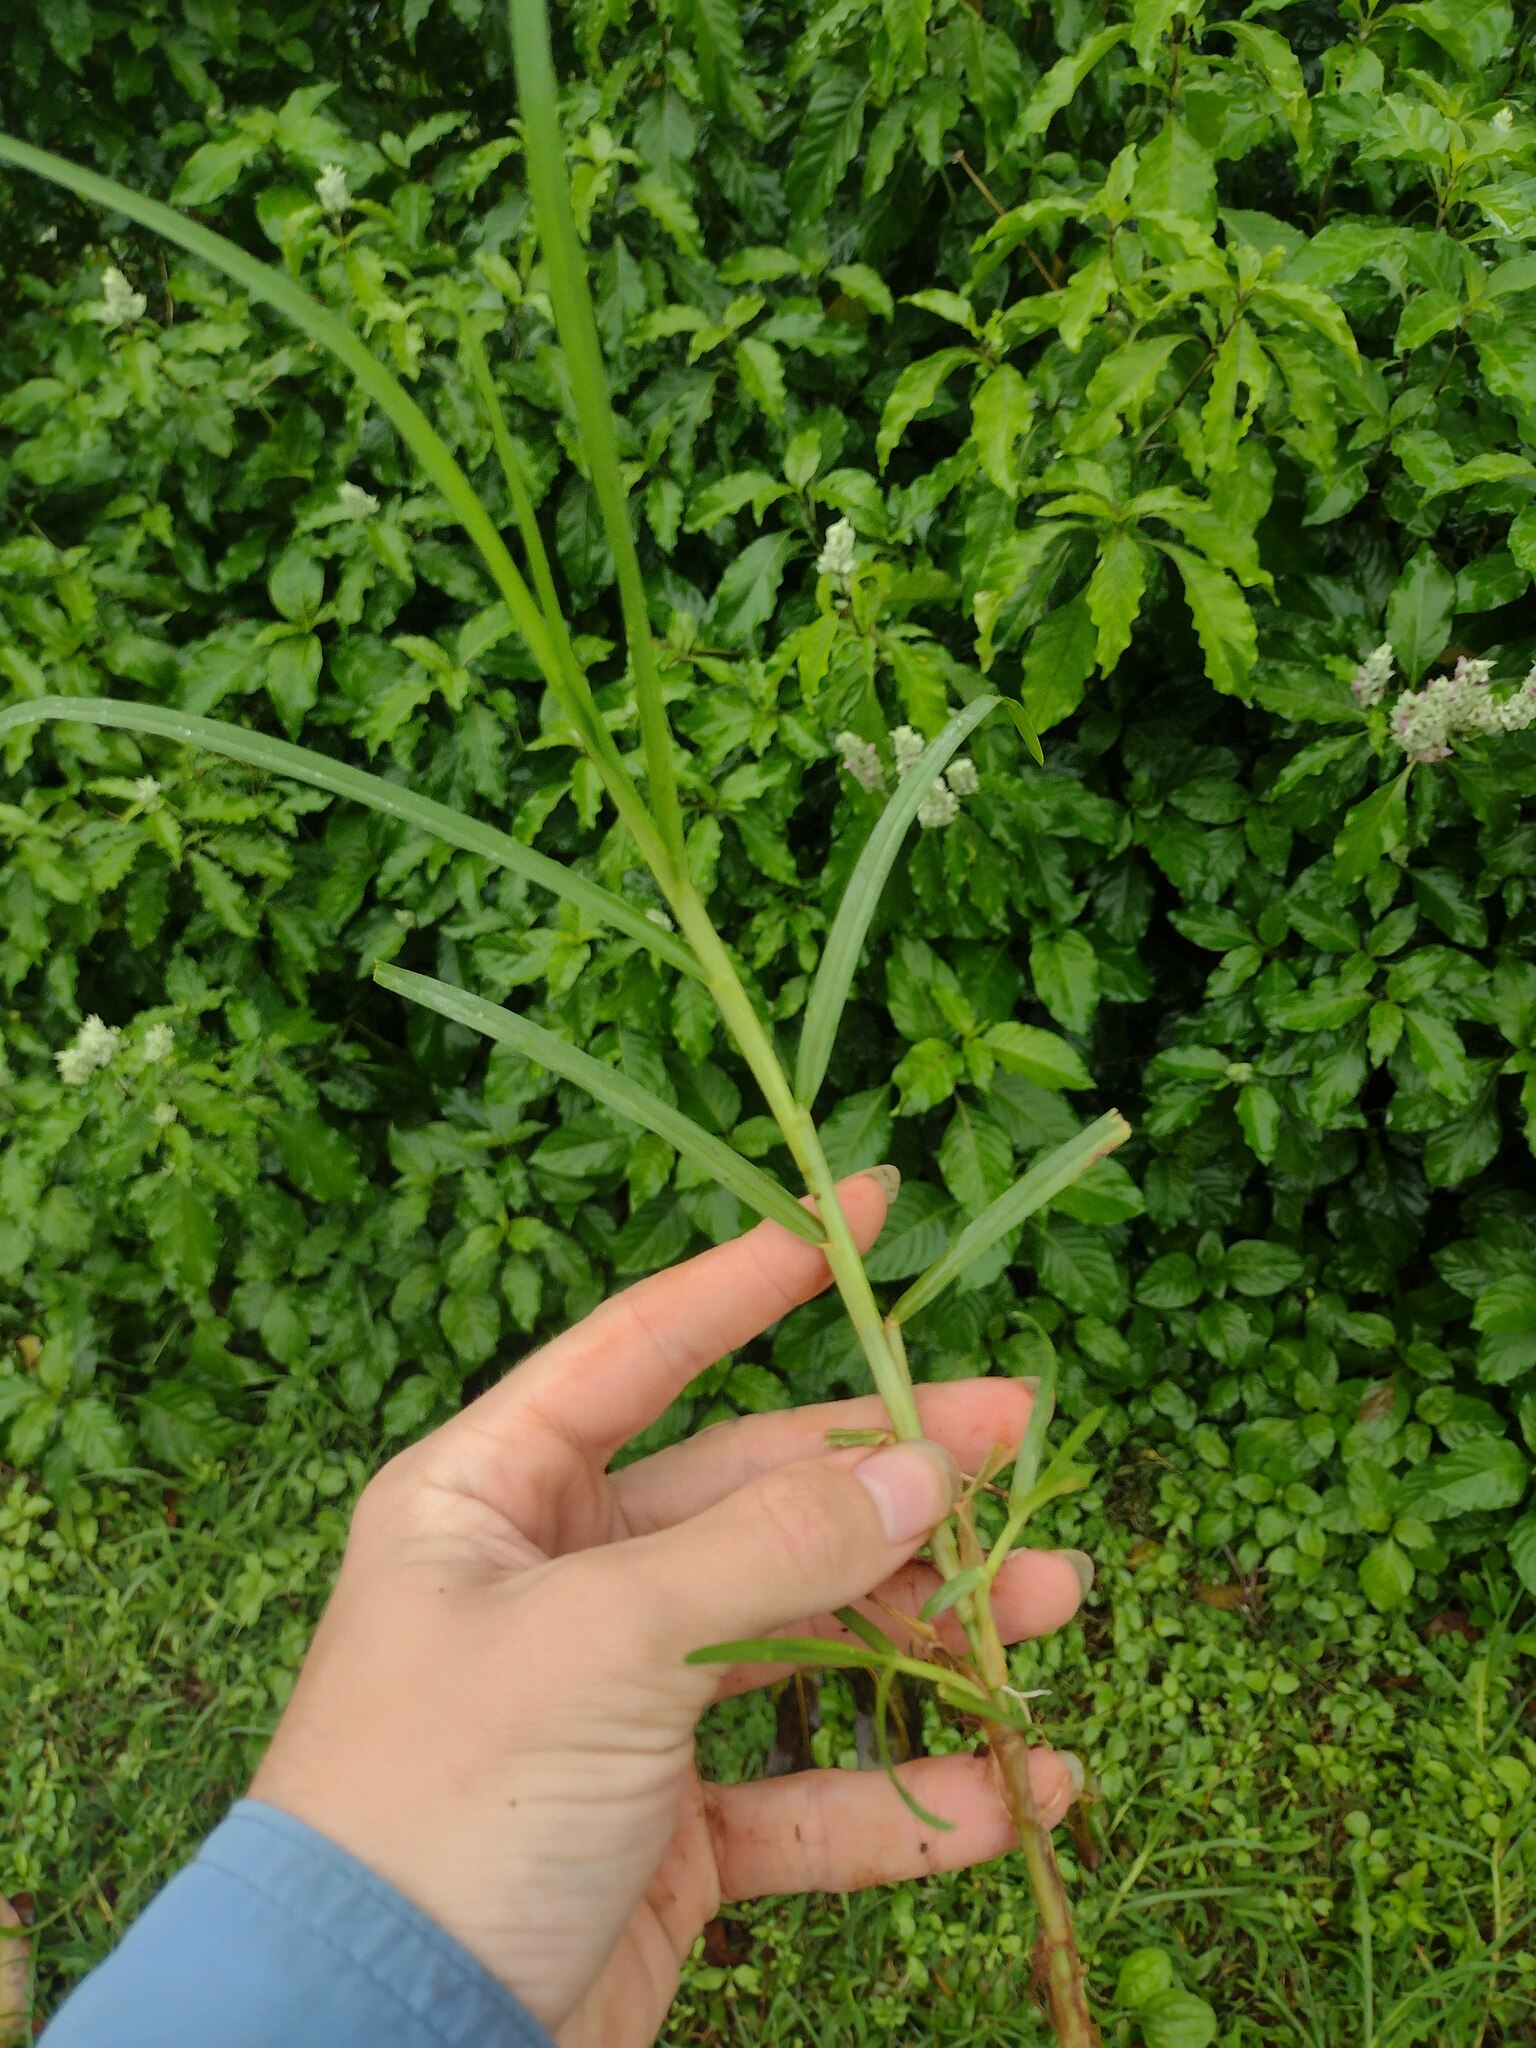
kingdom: Plantae
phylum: Tracheophyta
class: Liliopsida
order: Poales
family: Poaceae
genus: Cenchrus
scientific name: Cenchrus clandestinus
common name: Kikuyugrass
